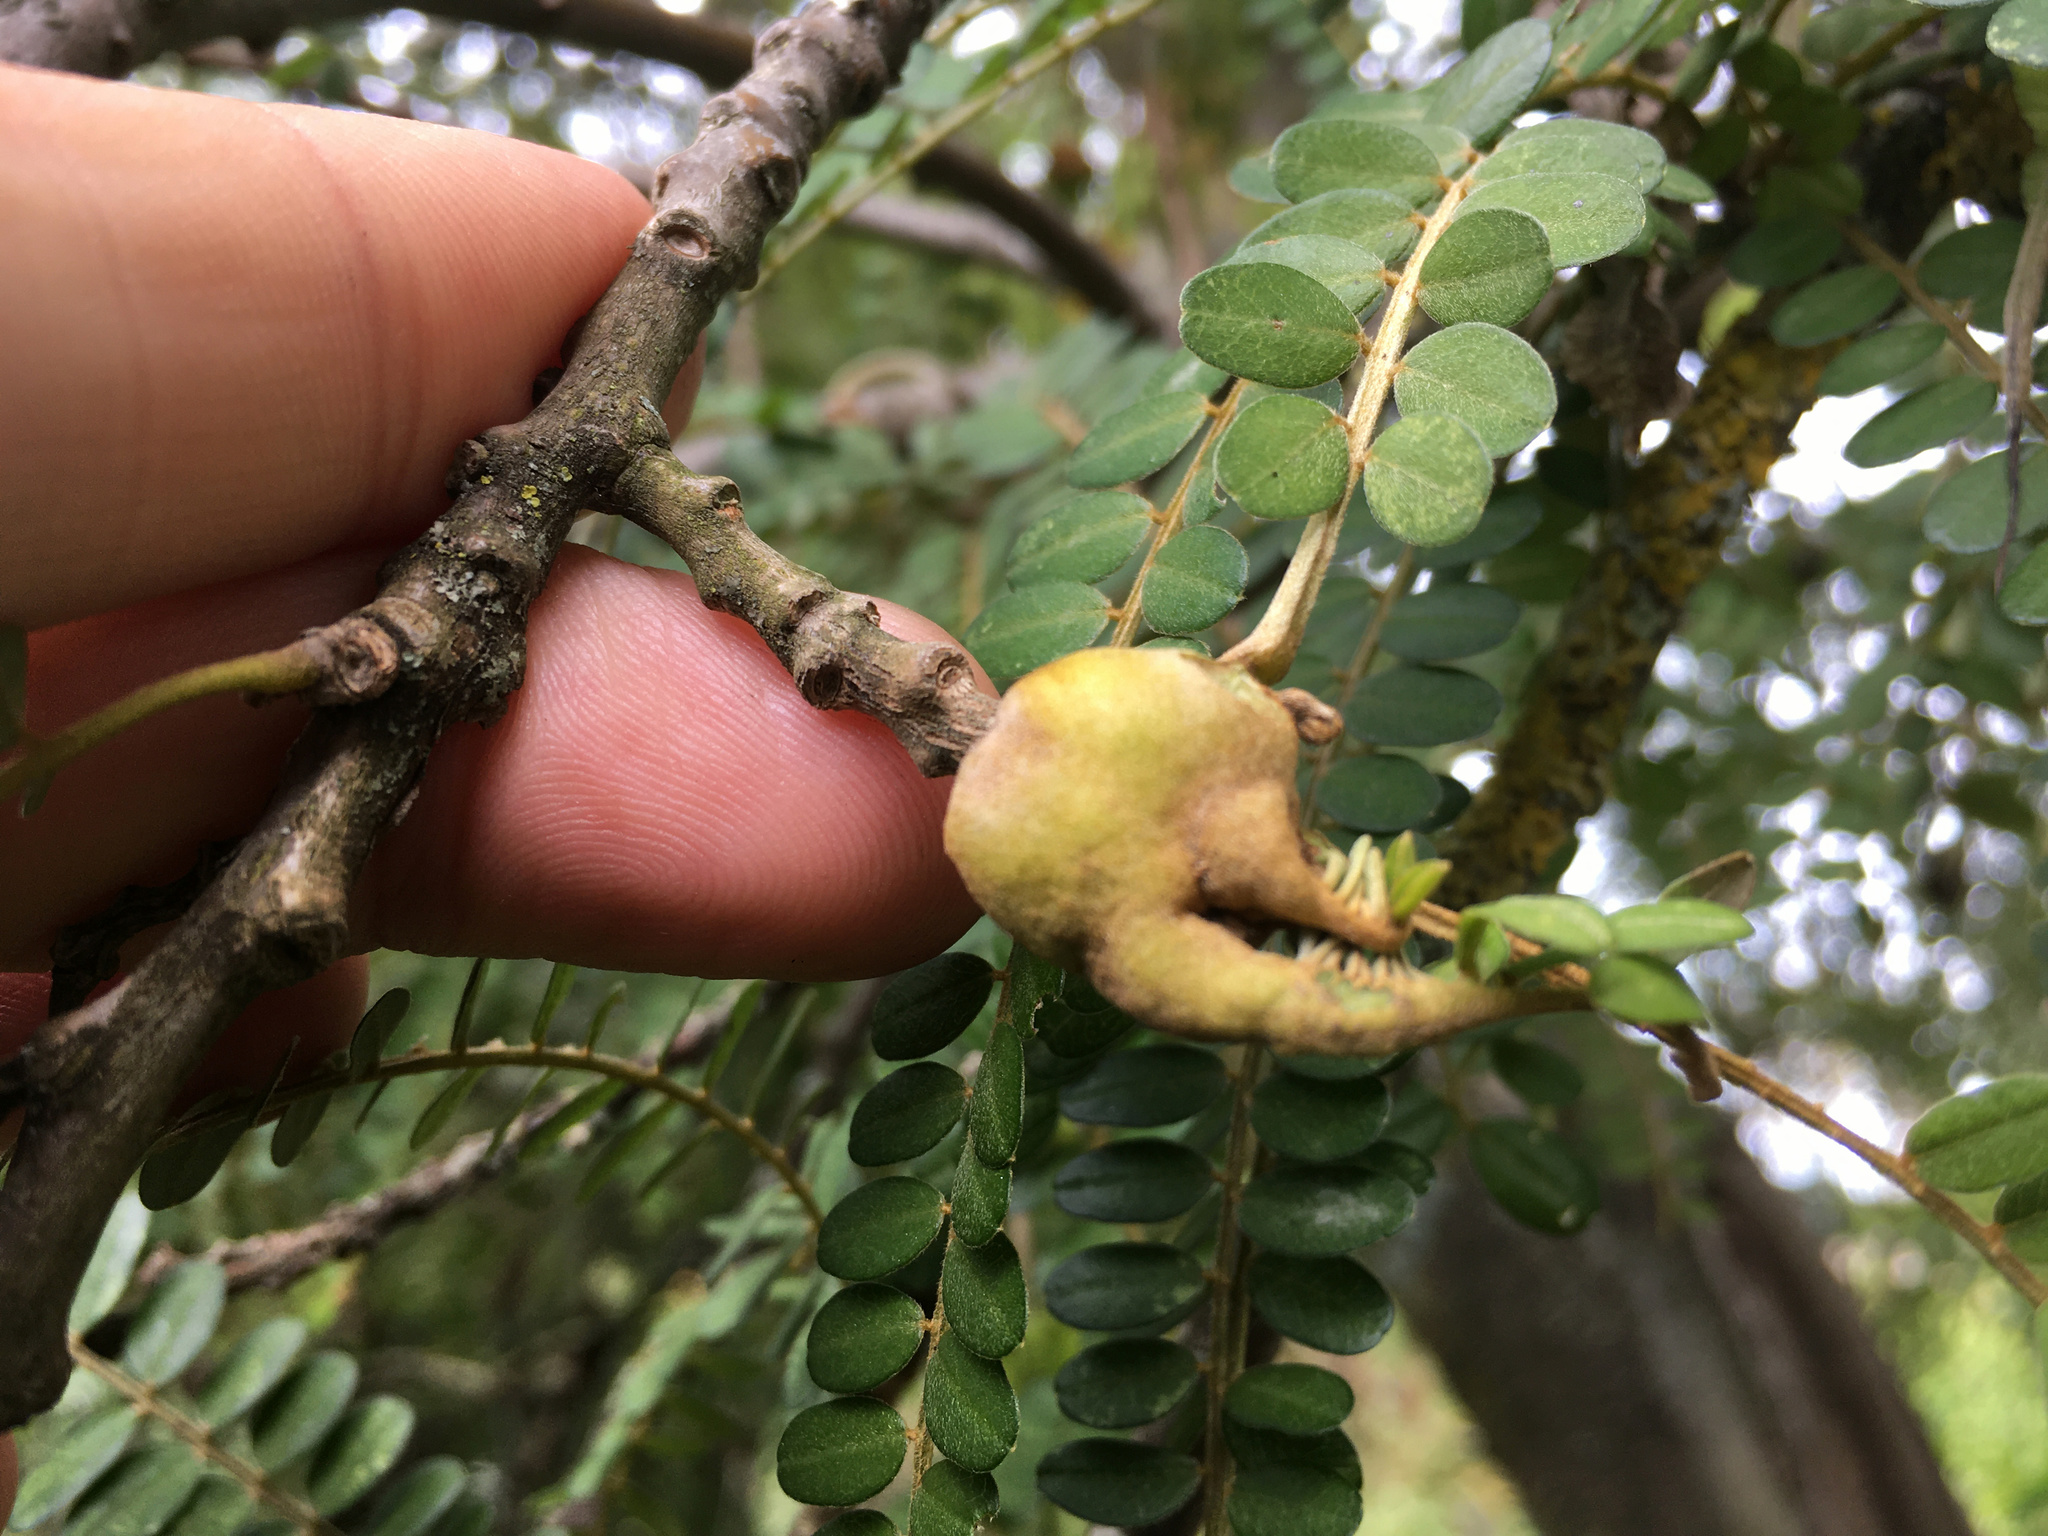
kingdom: Fungi
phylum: Basidiomycota
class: Pucciniomycetes
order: Pucciniales
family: Pucciniaceae
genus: Uromyces
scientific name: Uromyces edwardsiae
